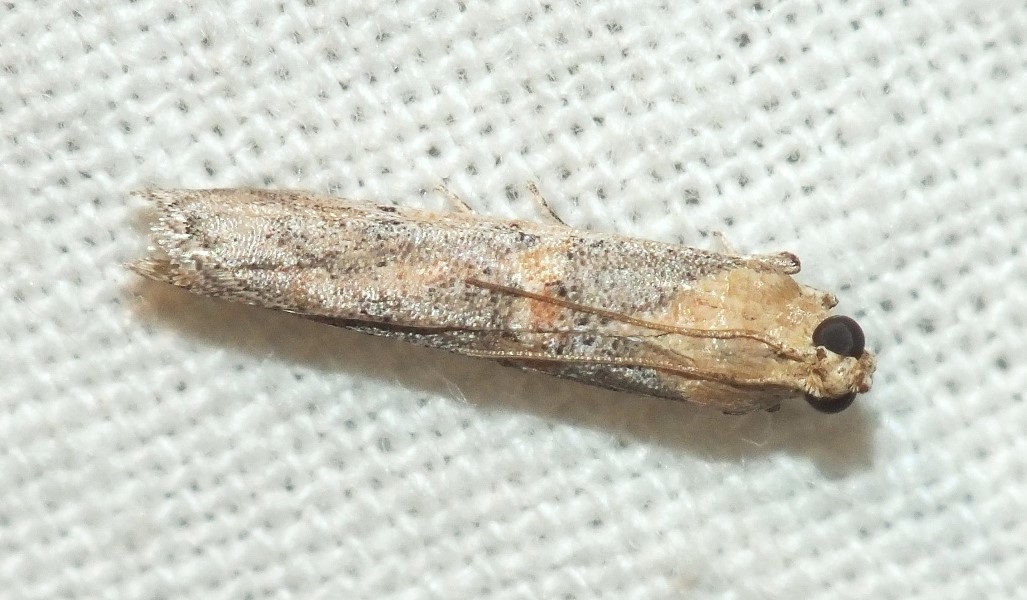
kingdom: Animalia
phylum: Arthropoda
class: Insecta
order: Lepidoptera
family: Pyralidae
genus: Gymnancyla
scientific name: Gymnancyla hornigii
